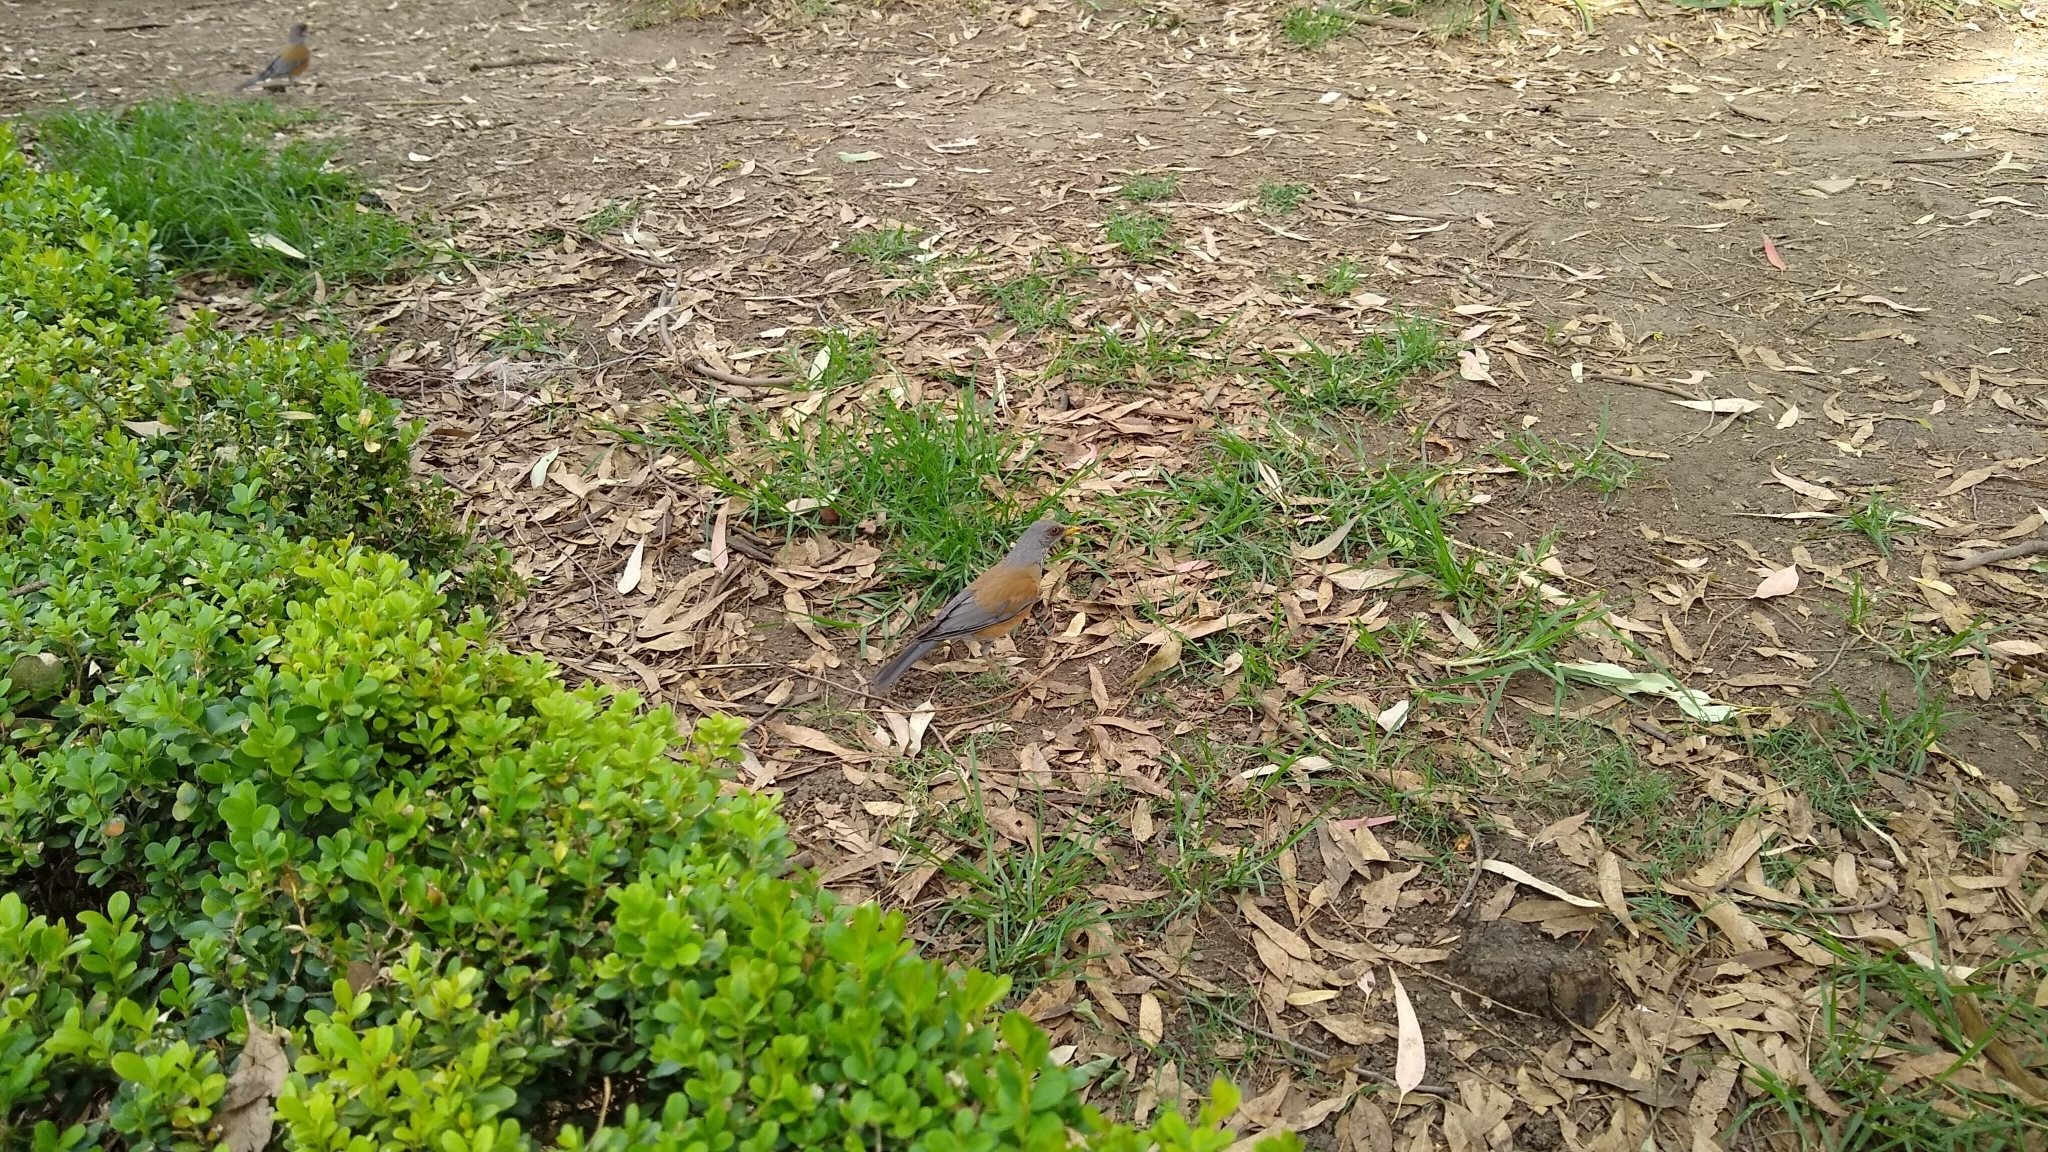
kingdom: Animalia
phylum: Chordata
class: Aves
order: Passeriformes
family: Turdidae
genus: Turdus
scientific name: Turdus rufopalliatus
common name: Rufous-backed robin
